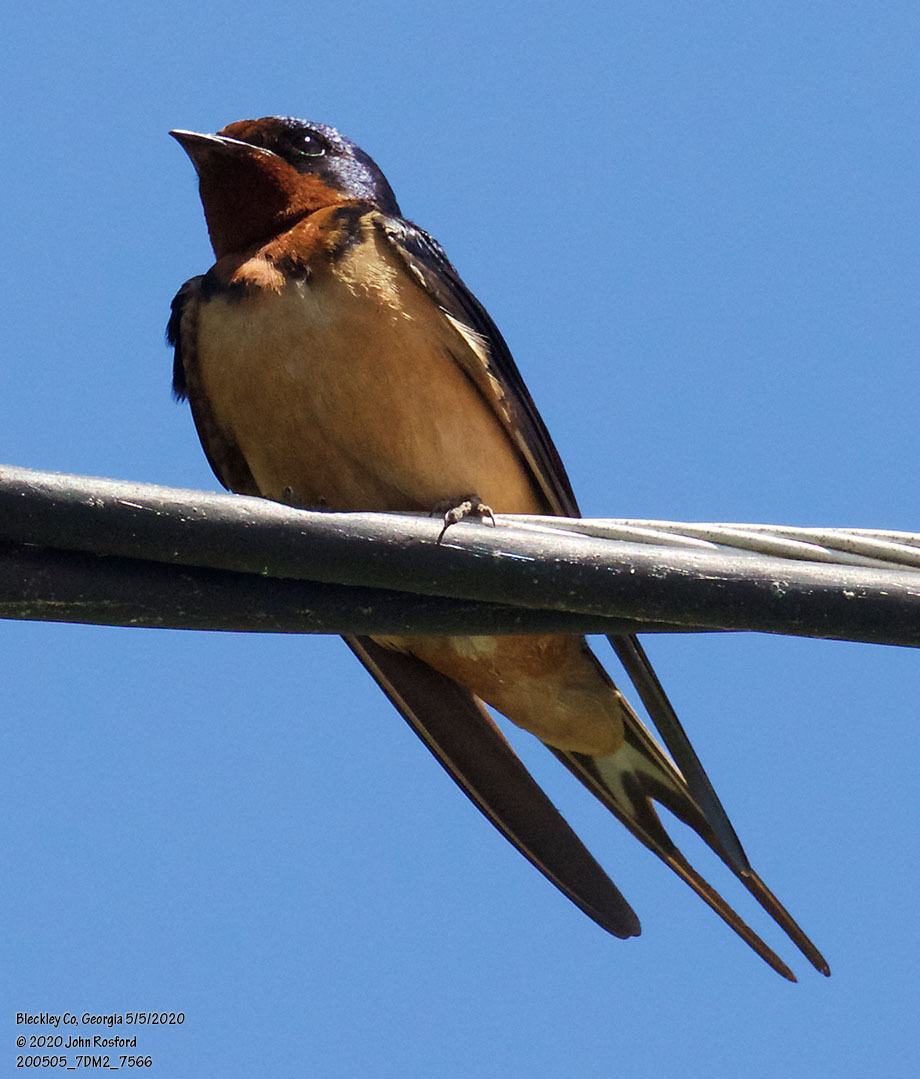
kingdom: Animalia
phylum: Chordata
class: Aves
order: Passeriformes
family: Hirundinidae
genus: Hirundo
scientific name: Hirundo rustica
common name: Barn swallow
